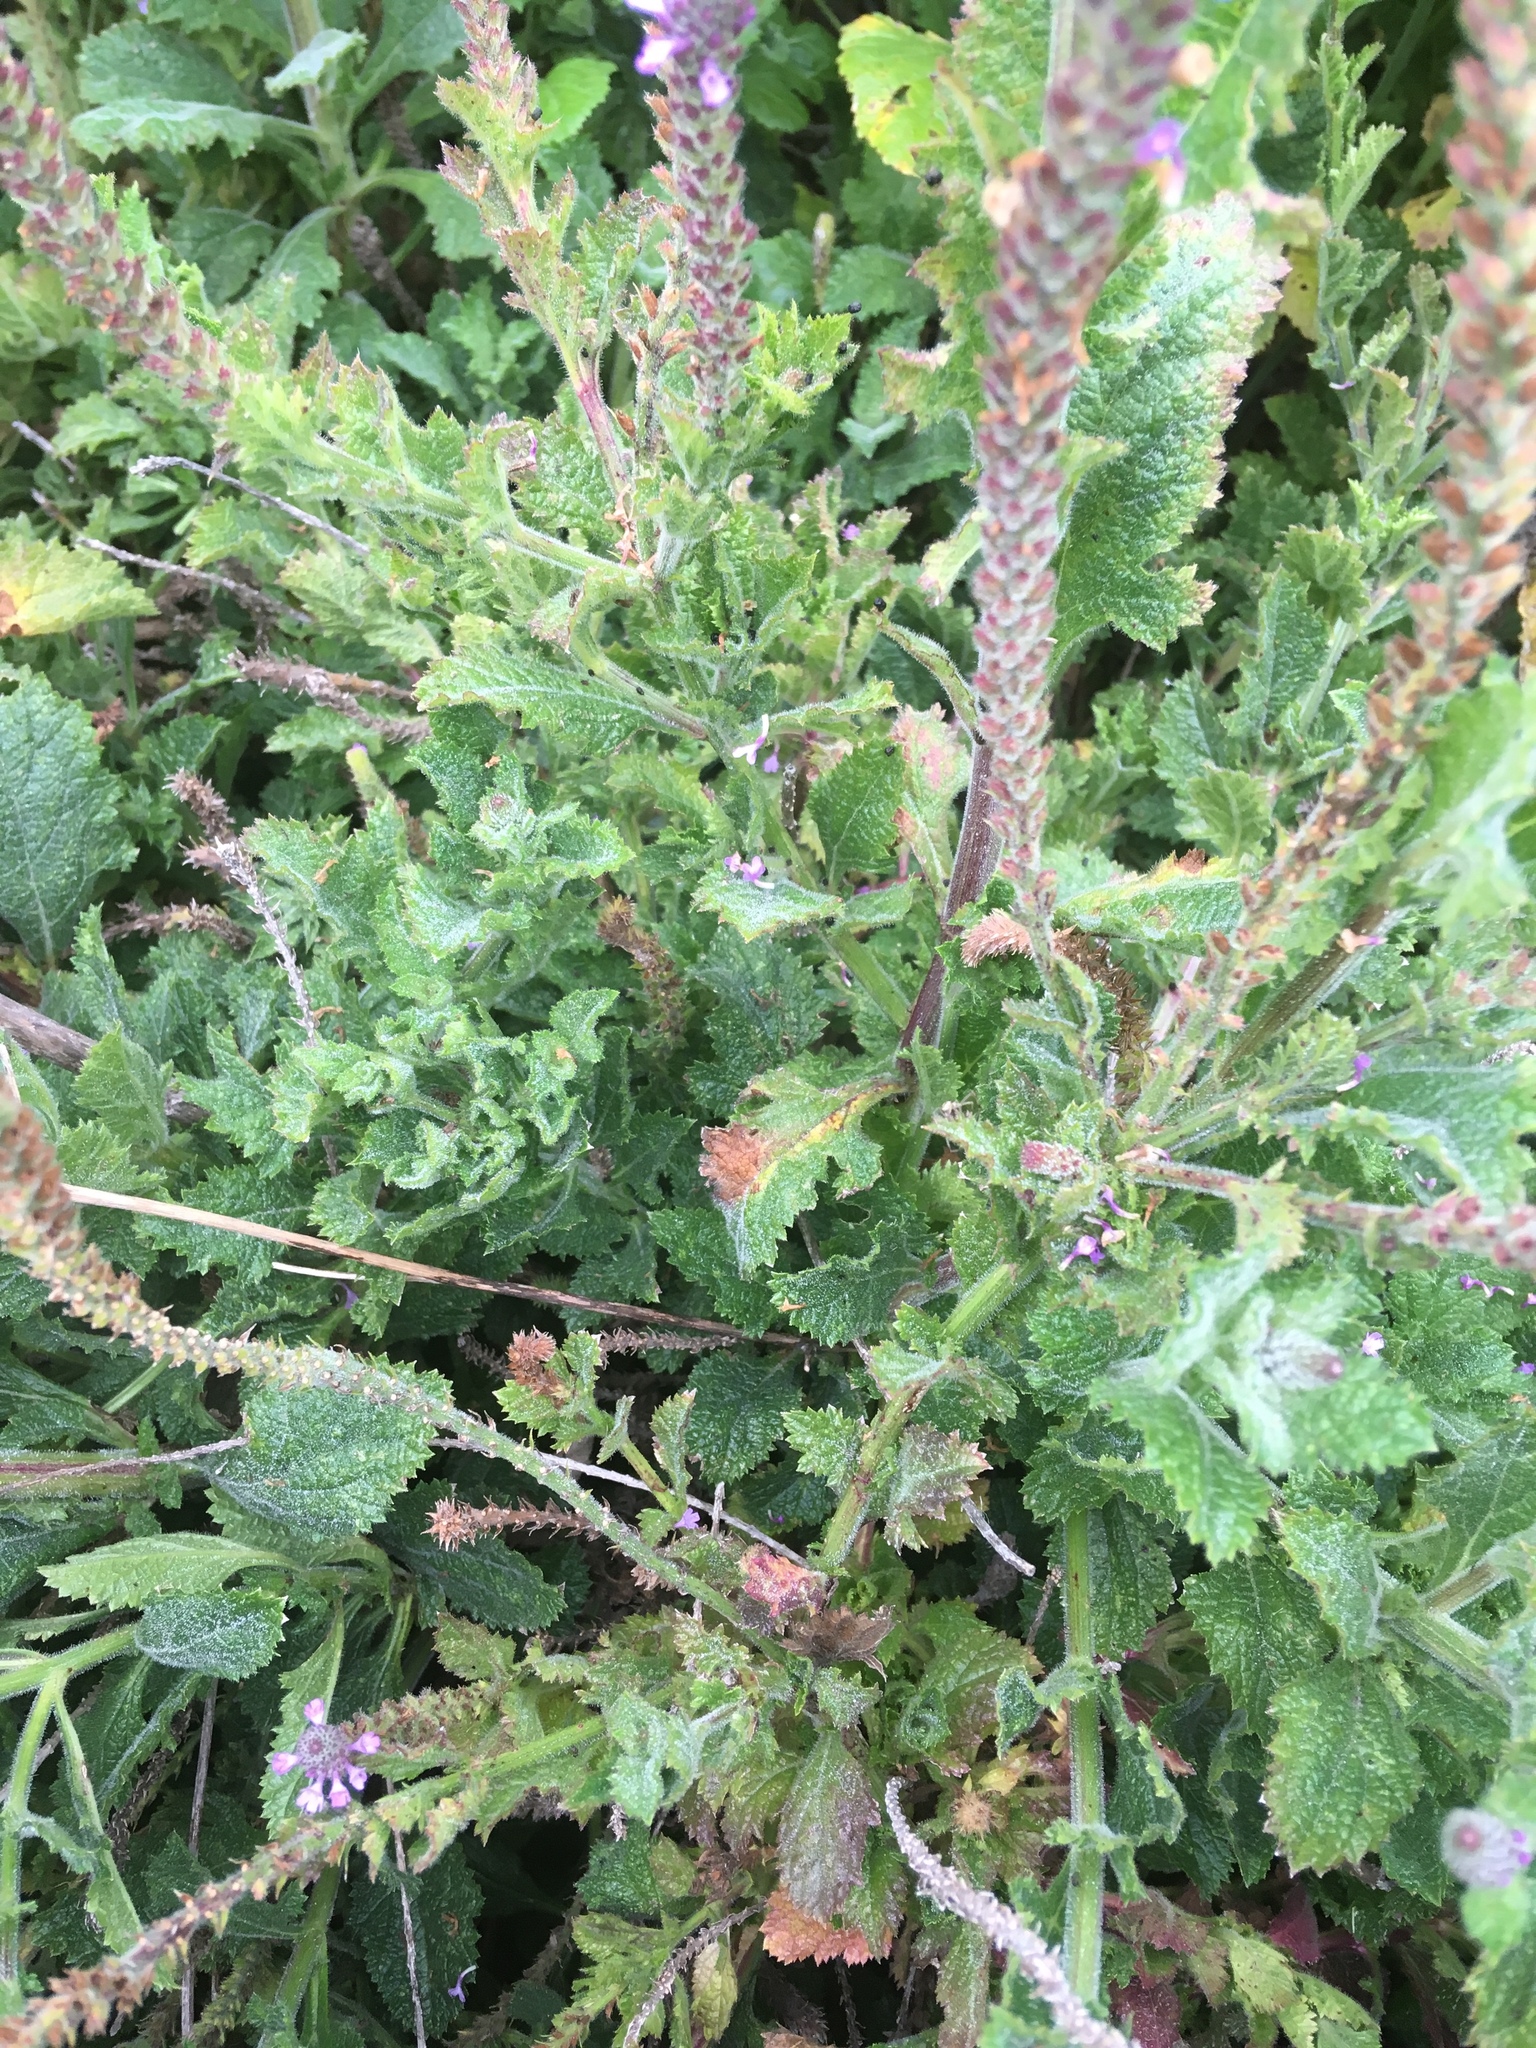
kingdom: Plantae
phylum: Tracheophyta
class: Magnoliopsida
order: Lamiales
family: Verbenaceae
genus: Verbena
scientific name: Verbena lasiostachys
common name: Vervain
